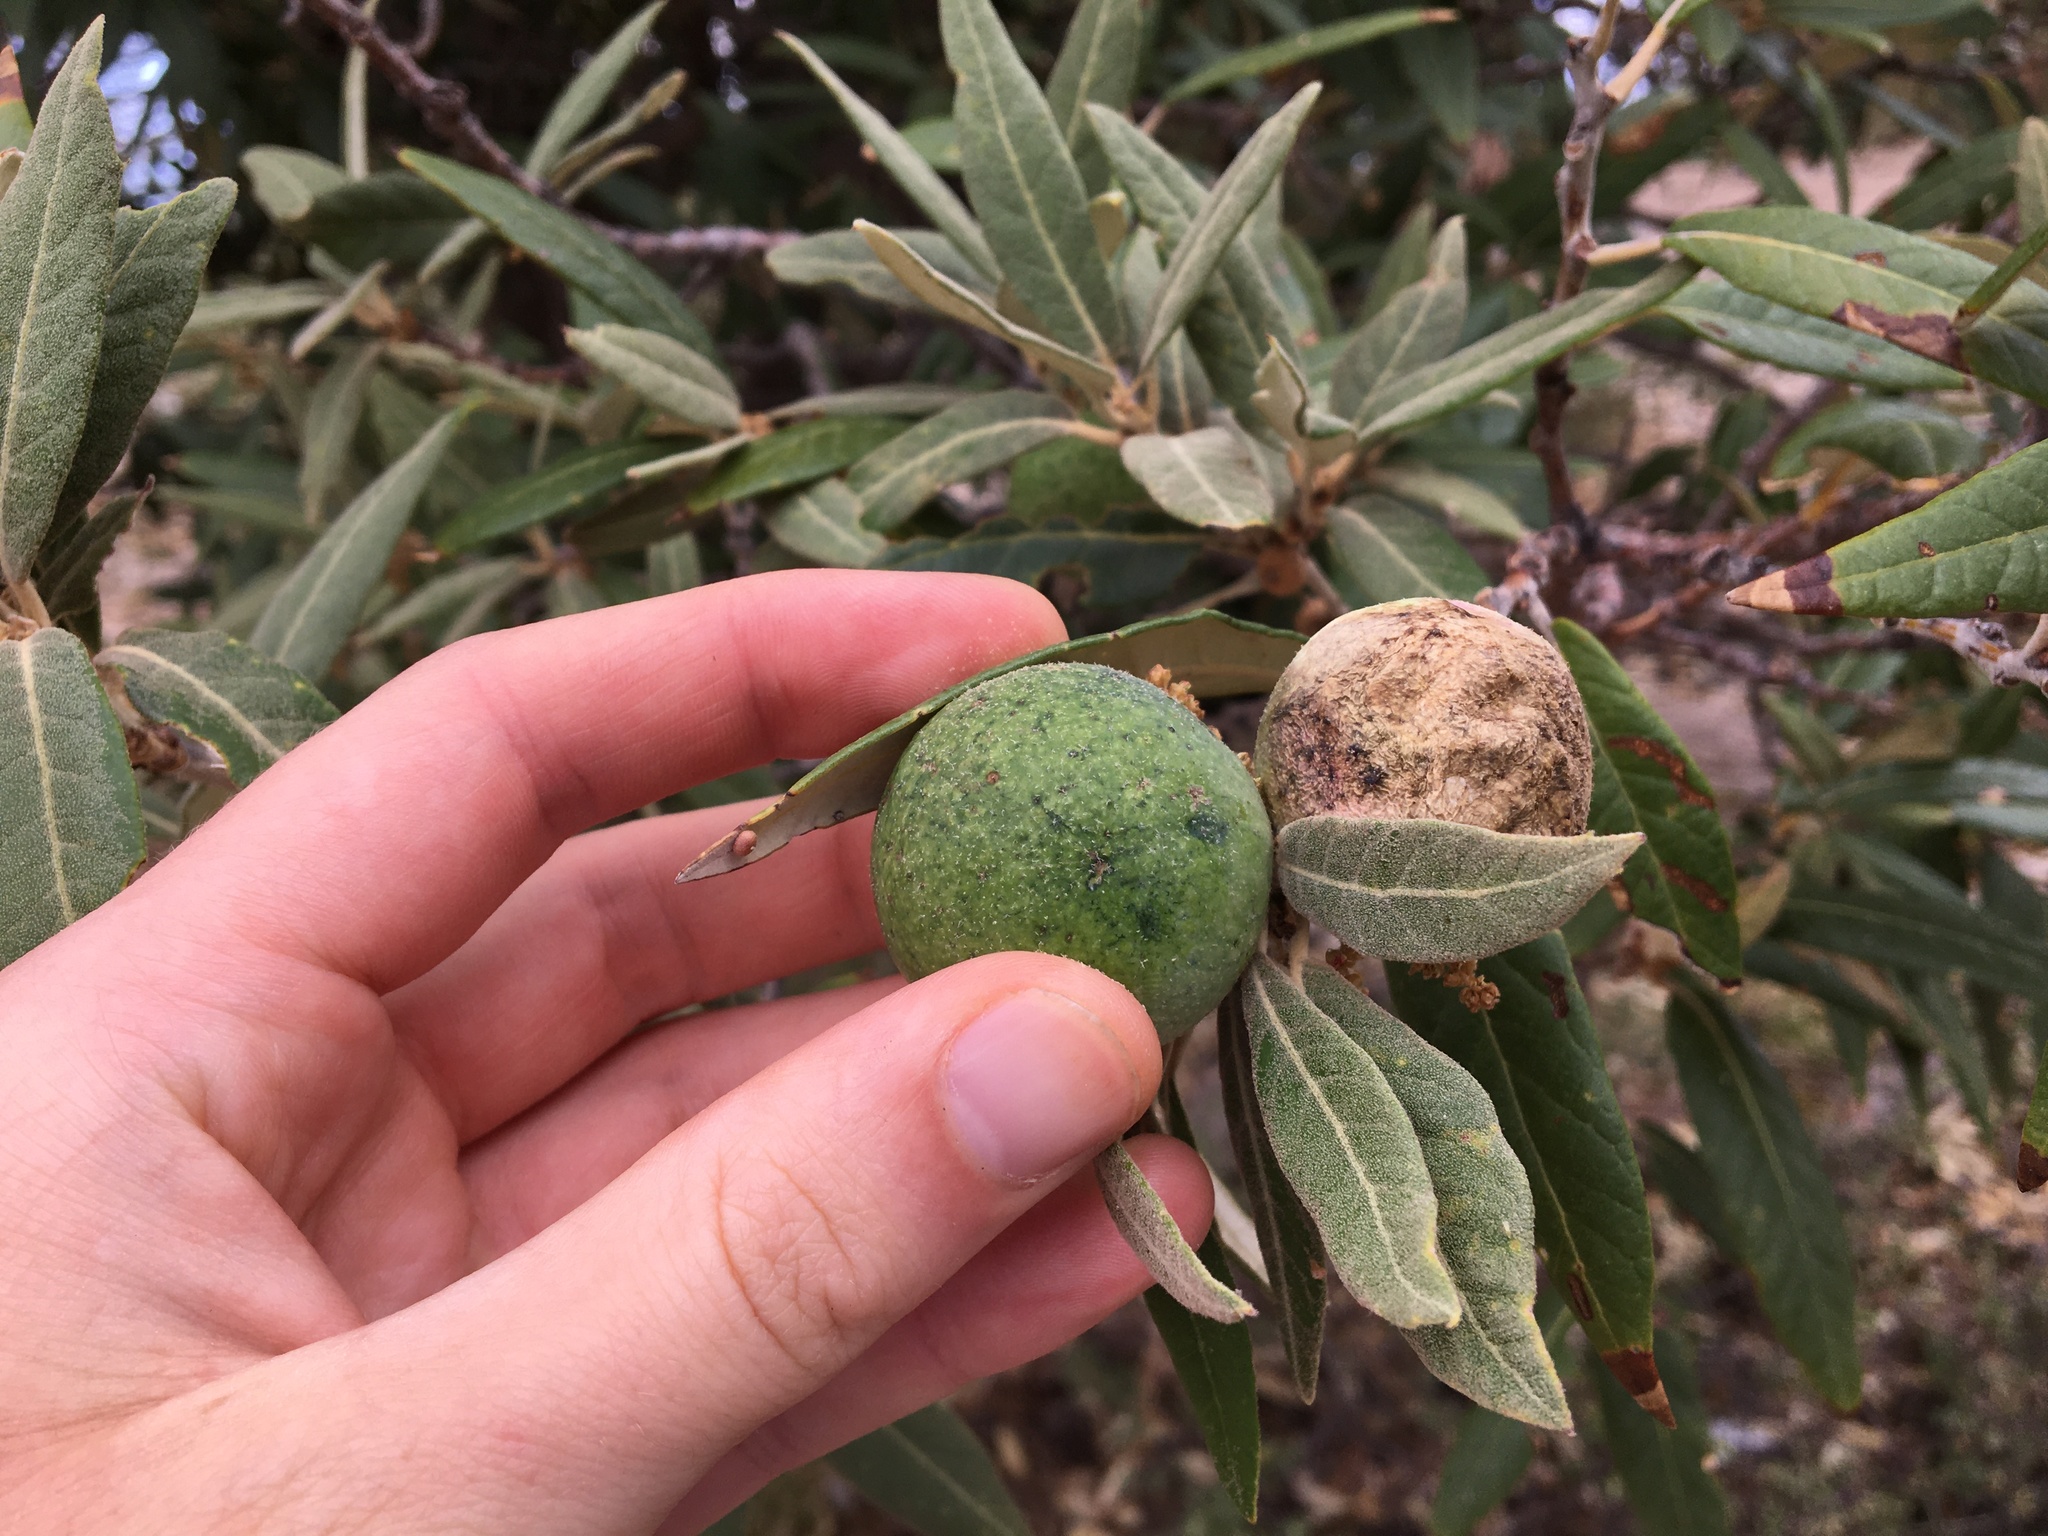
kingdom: Animalia
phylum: Arthropoda
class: Insecta
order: Hymenoptera
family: Cynipidae
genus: Amphibolips
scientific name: Amphibolips
